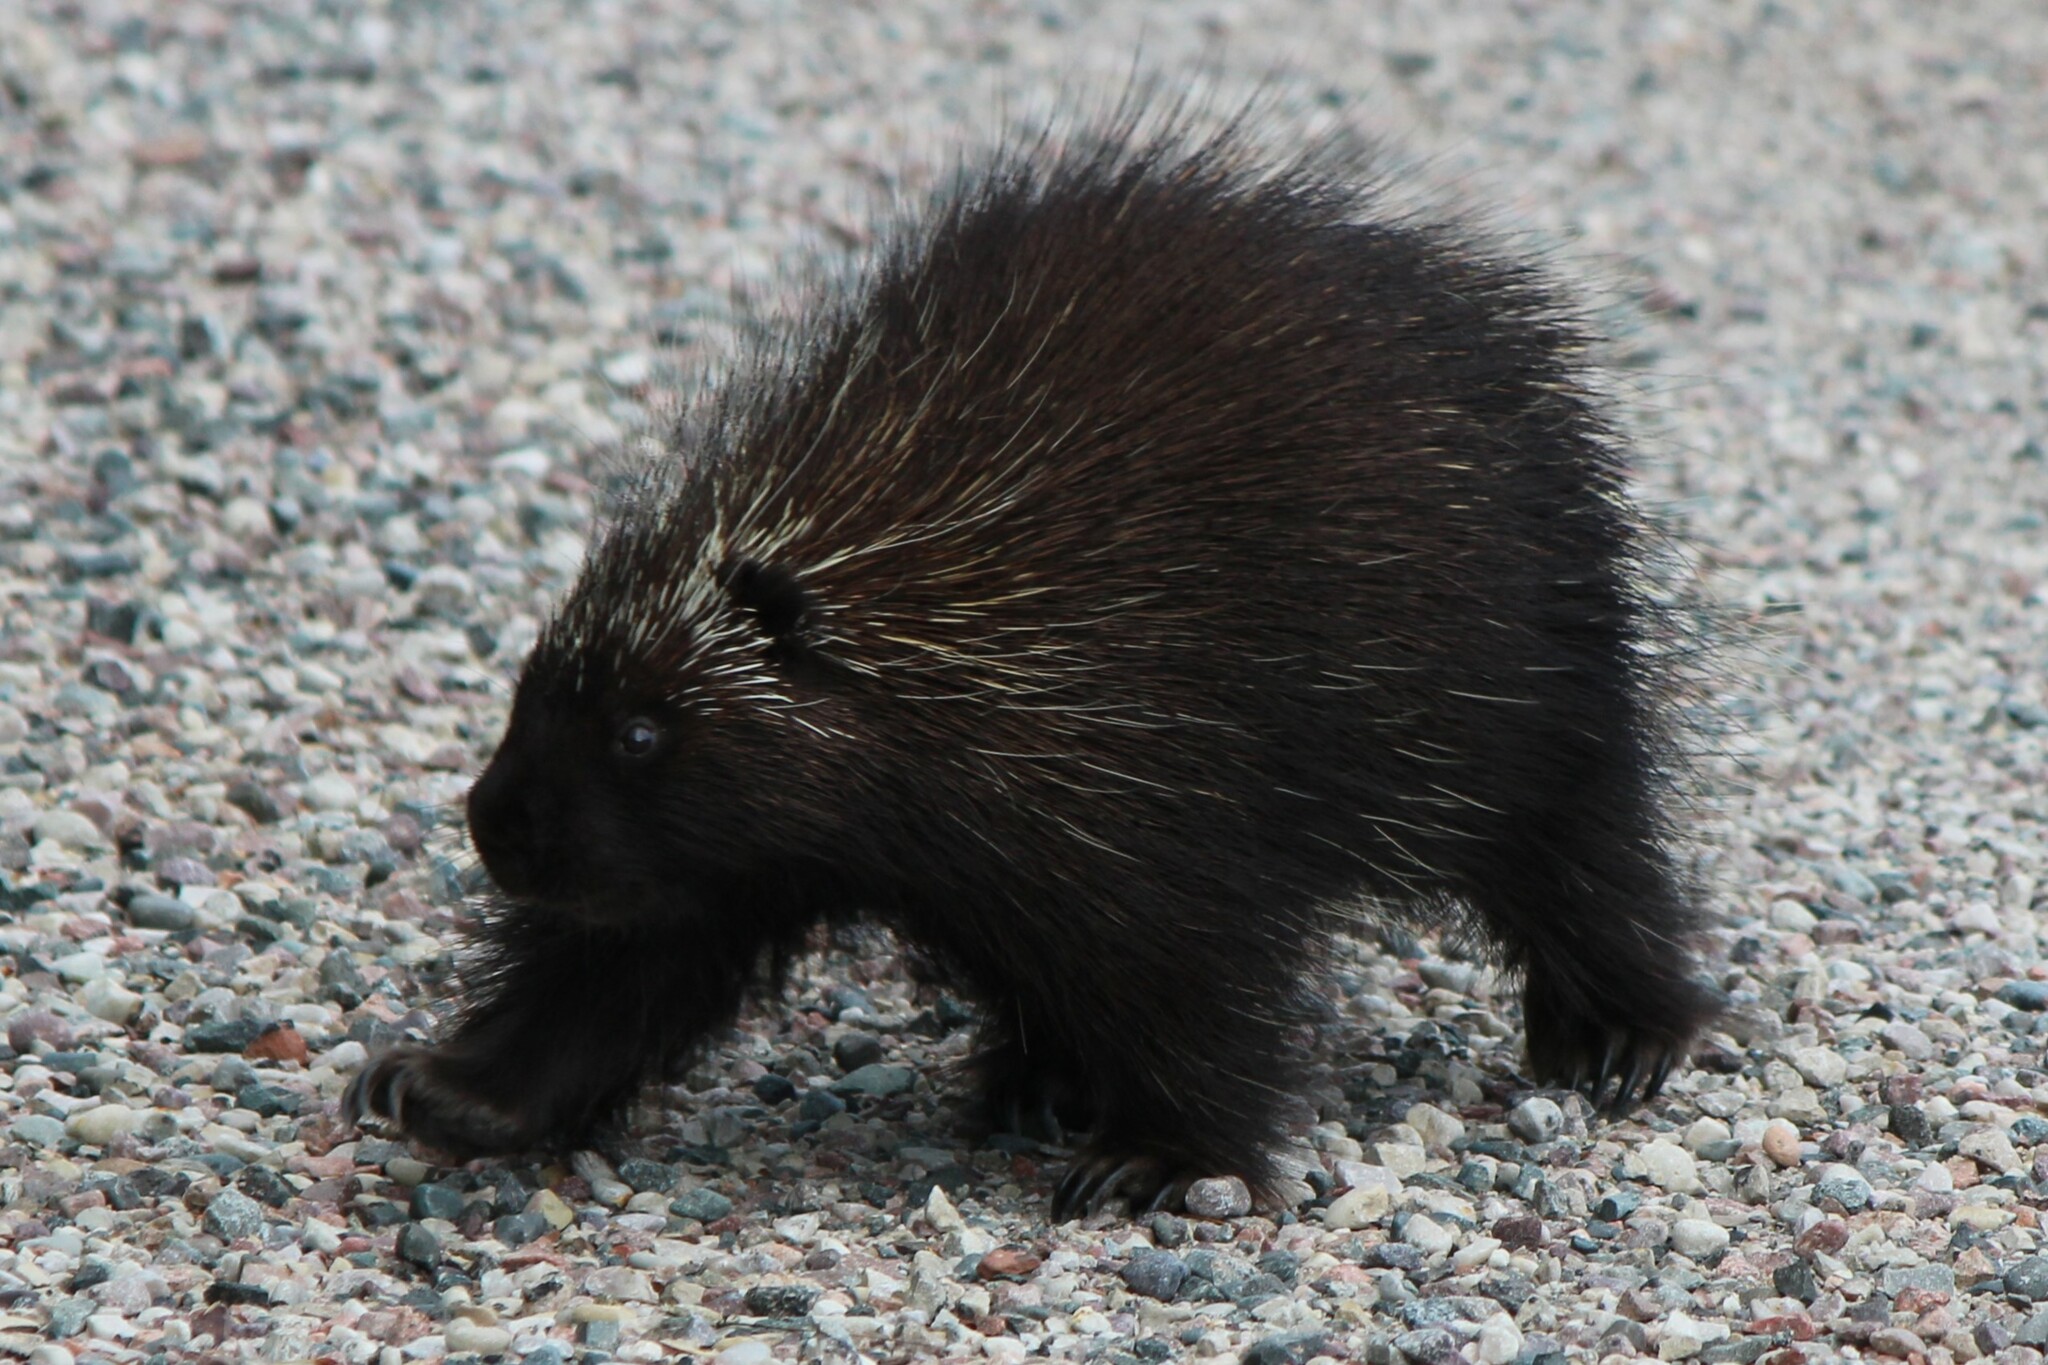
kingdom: Animalia
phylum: Chordata
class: Mammalia
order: Rodentia
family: Erethizontidae
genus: Erethizon
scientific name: Erethizon dorsatus
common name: North american porcupine
